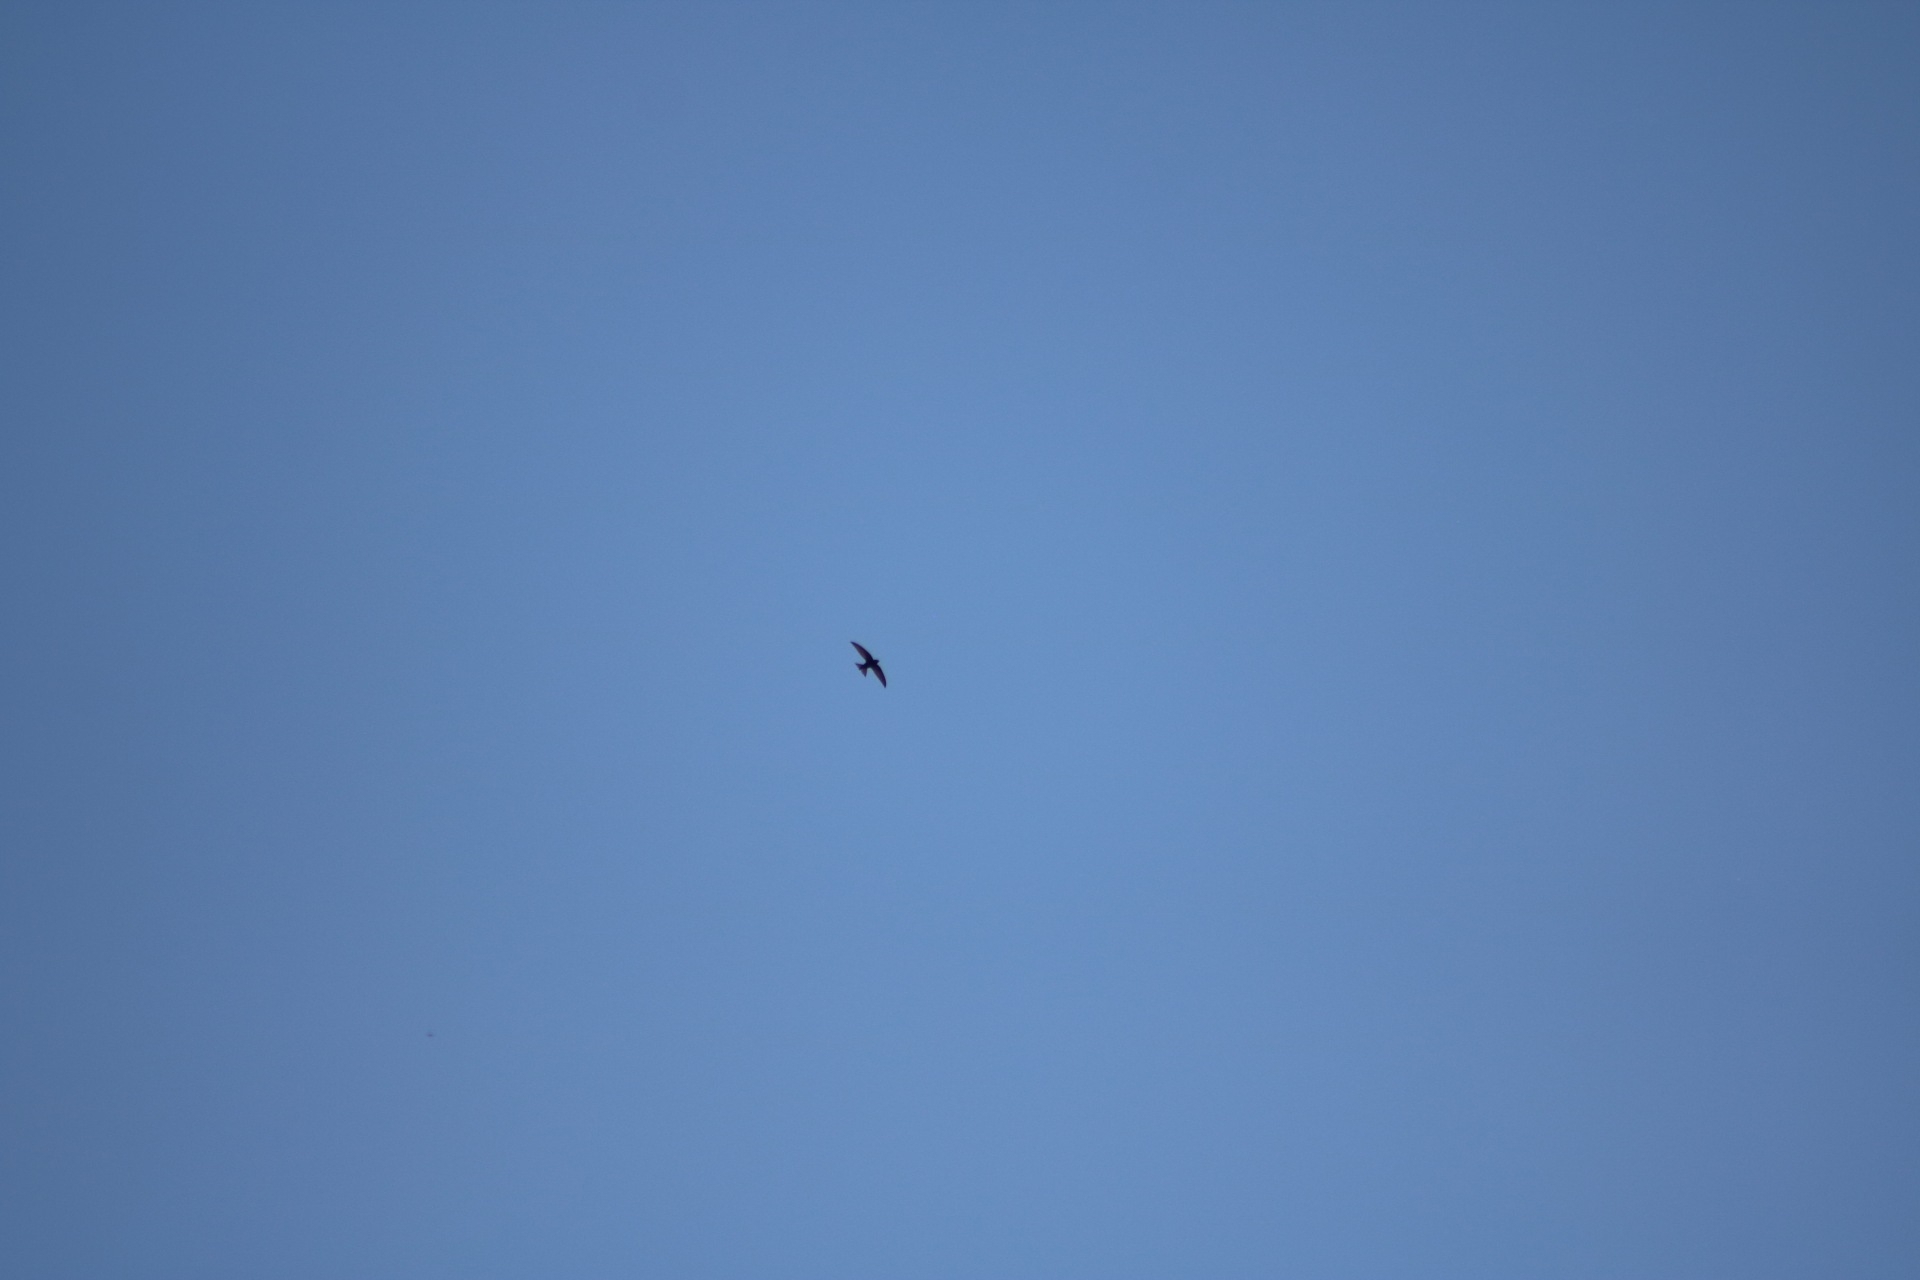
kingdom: Animalia
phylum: Chordata
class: Aves
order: Apodiformes
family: Apodidae
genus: Apus
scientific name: Apus apus
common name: Common swift
